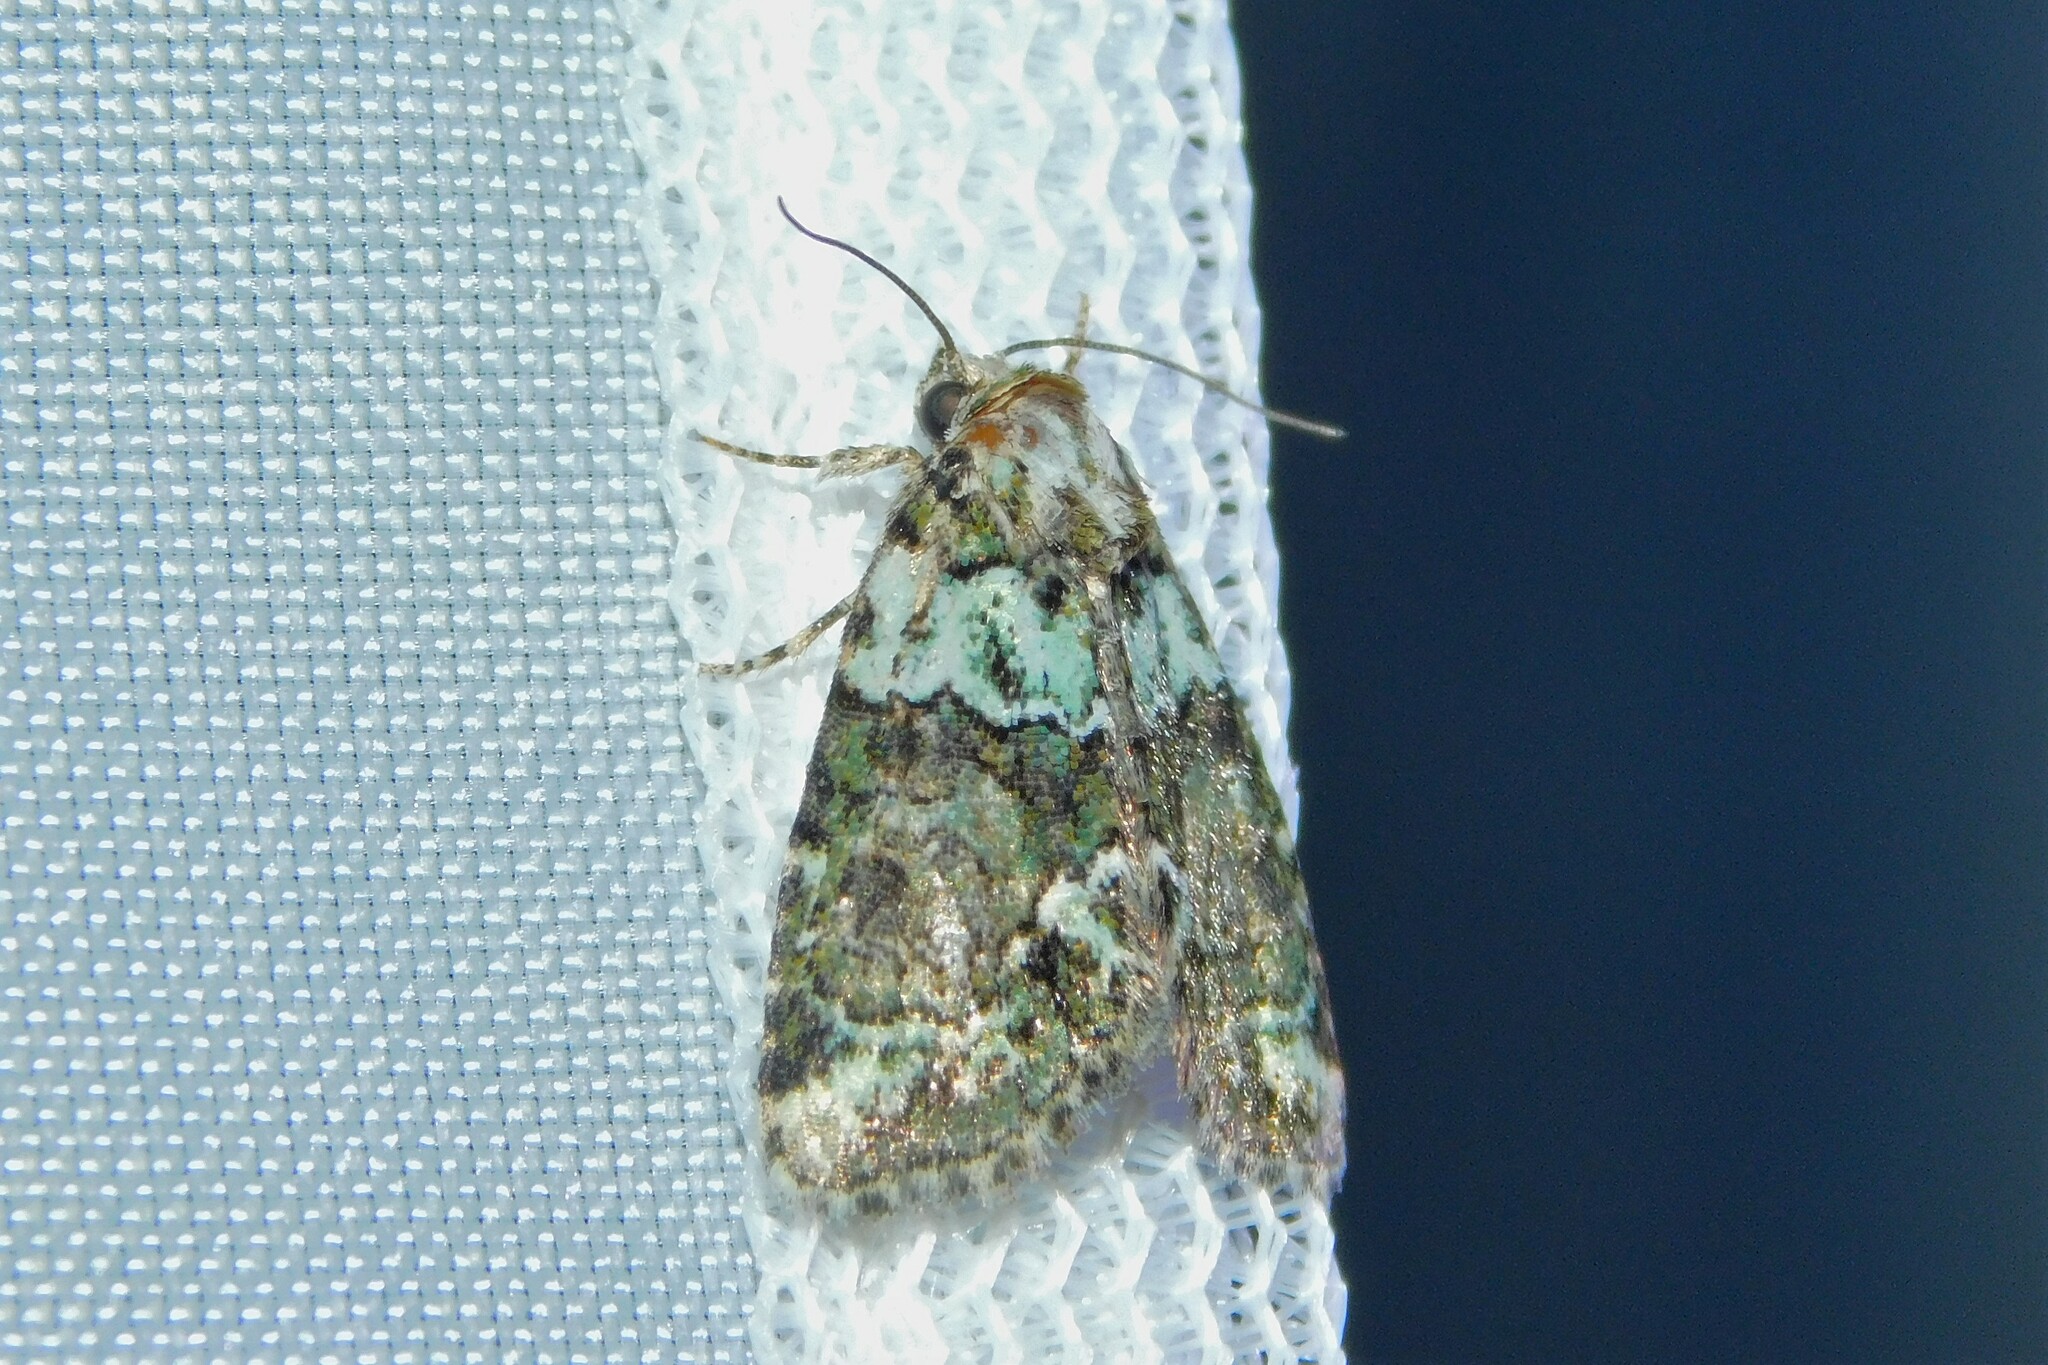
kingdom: Animalia
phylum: Arthropoda
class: Insecta
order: Lepidoptera
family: Noctuidae
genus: Cryphia
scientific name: Cryphia algae
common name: Tree-lichen beauty
